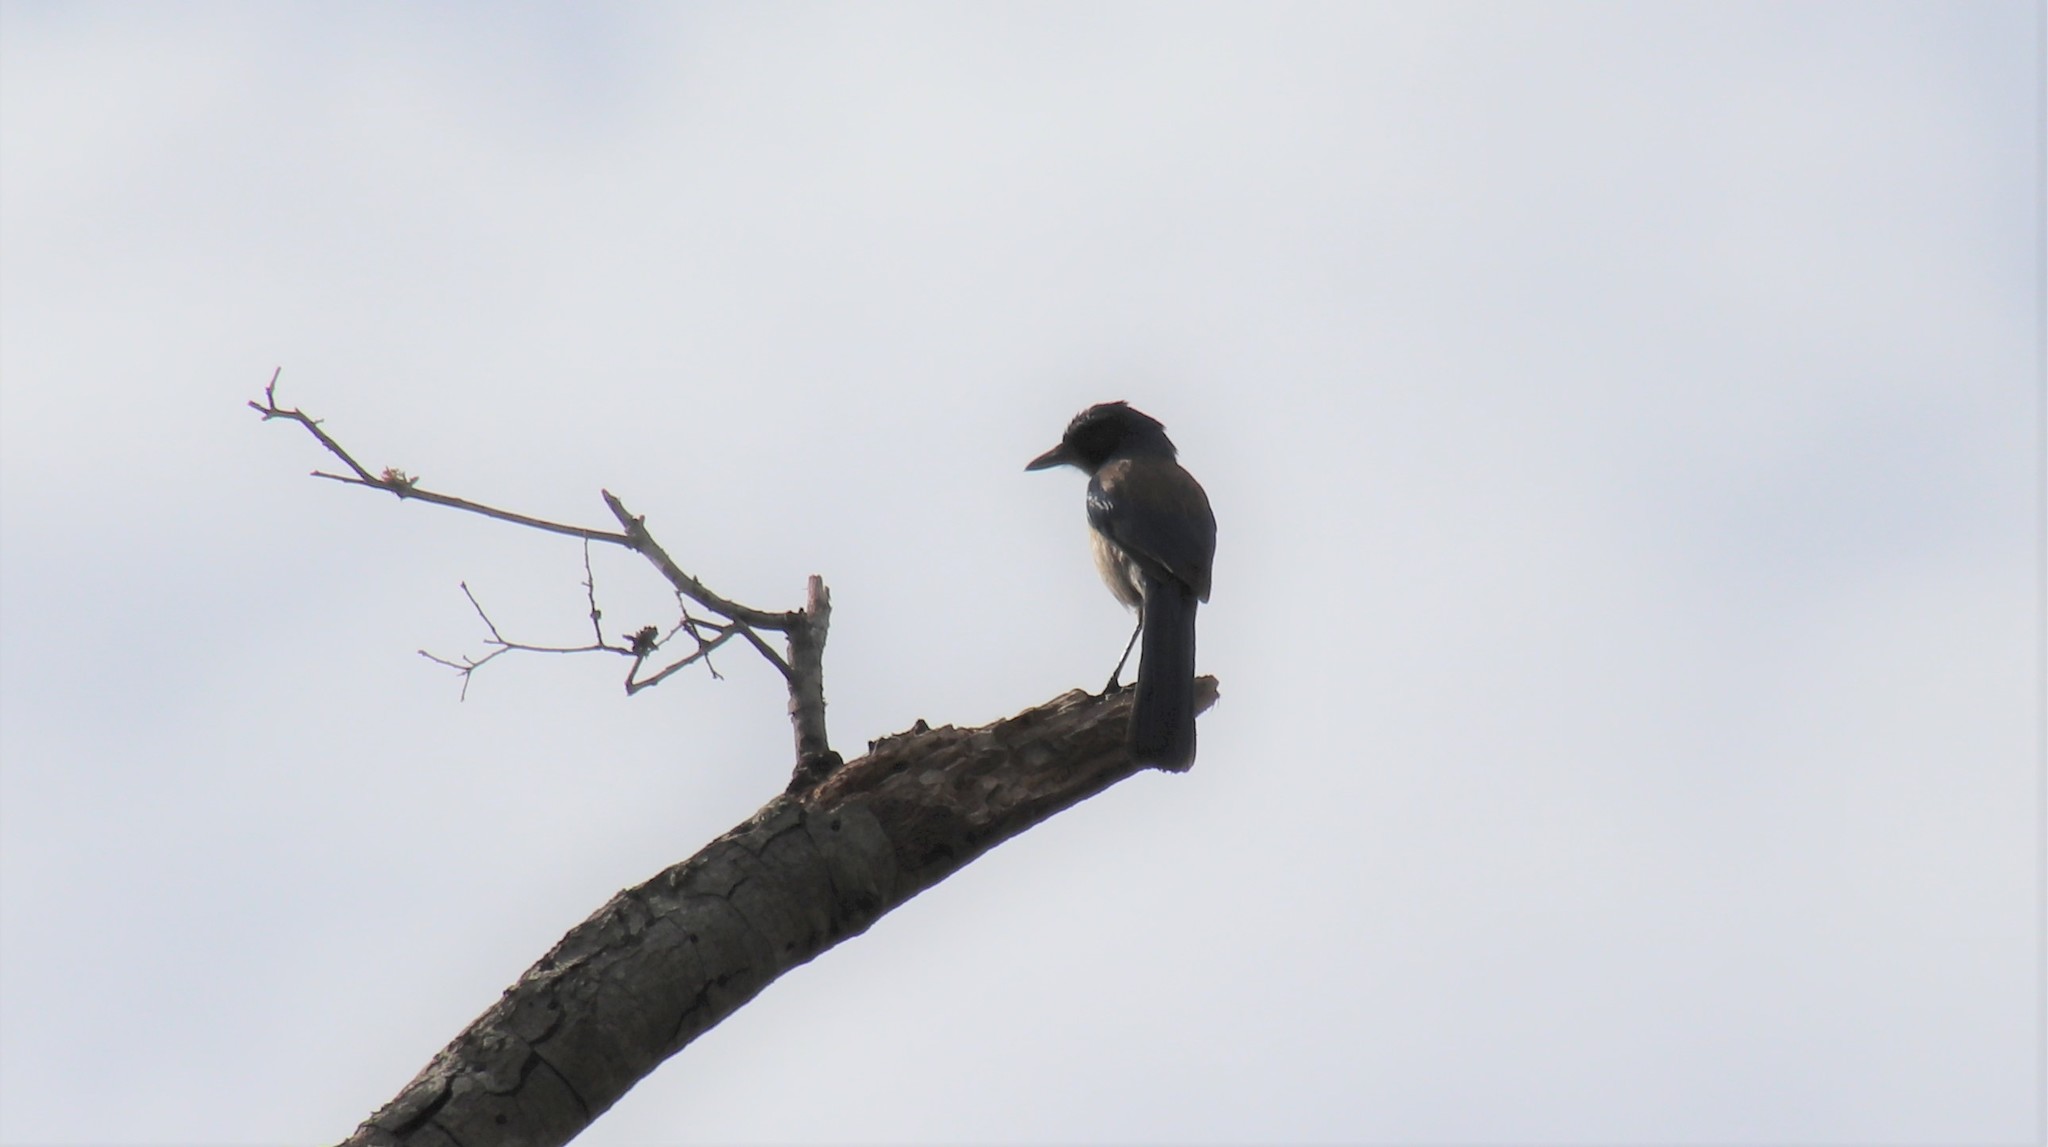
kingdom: Animalia
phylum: Chordata
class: Aves
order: Passeriformes
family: Corvidae
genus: Aphelocoma
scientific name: Aphelocoma californica
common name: California scrub-jay
